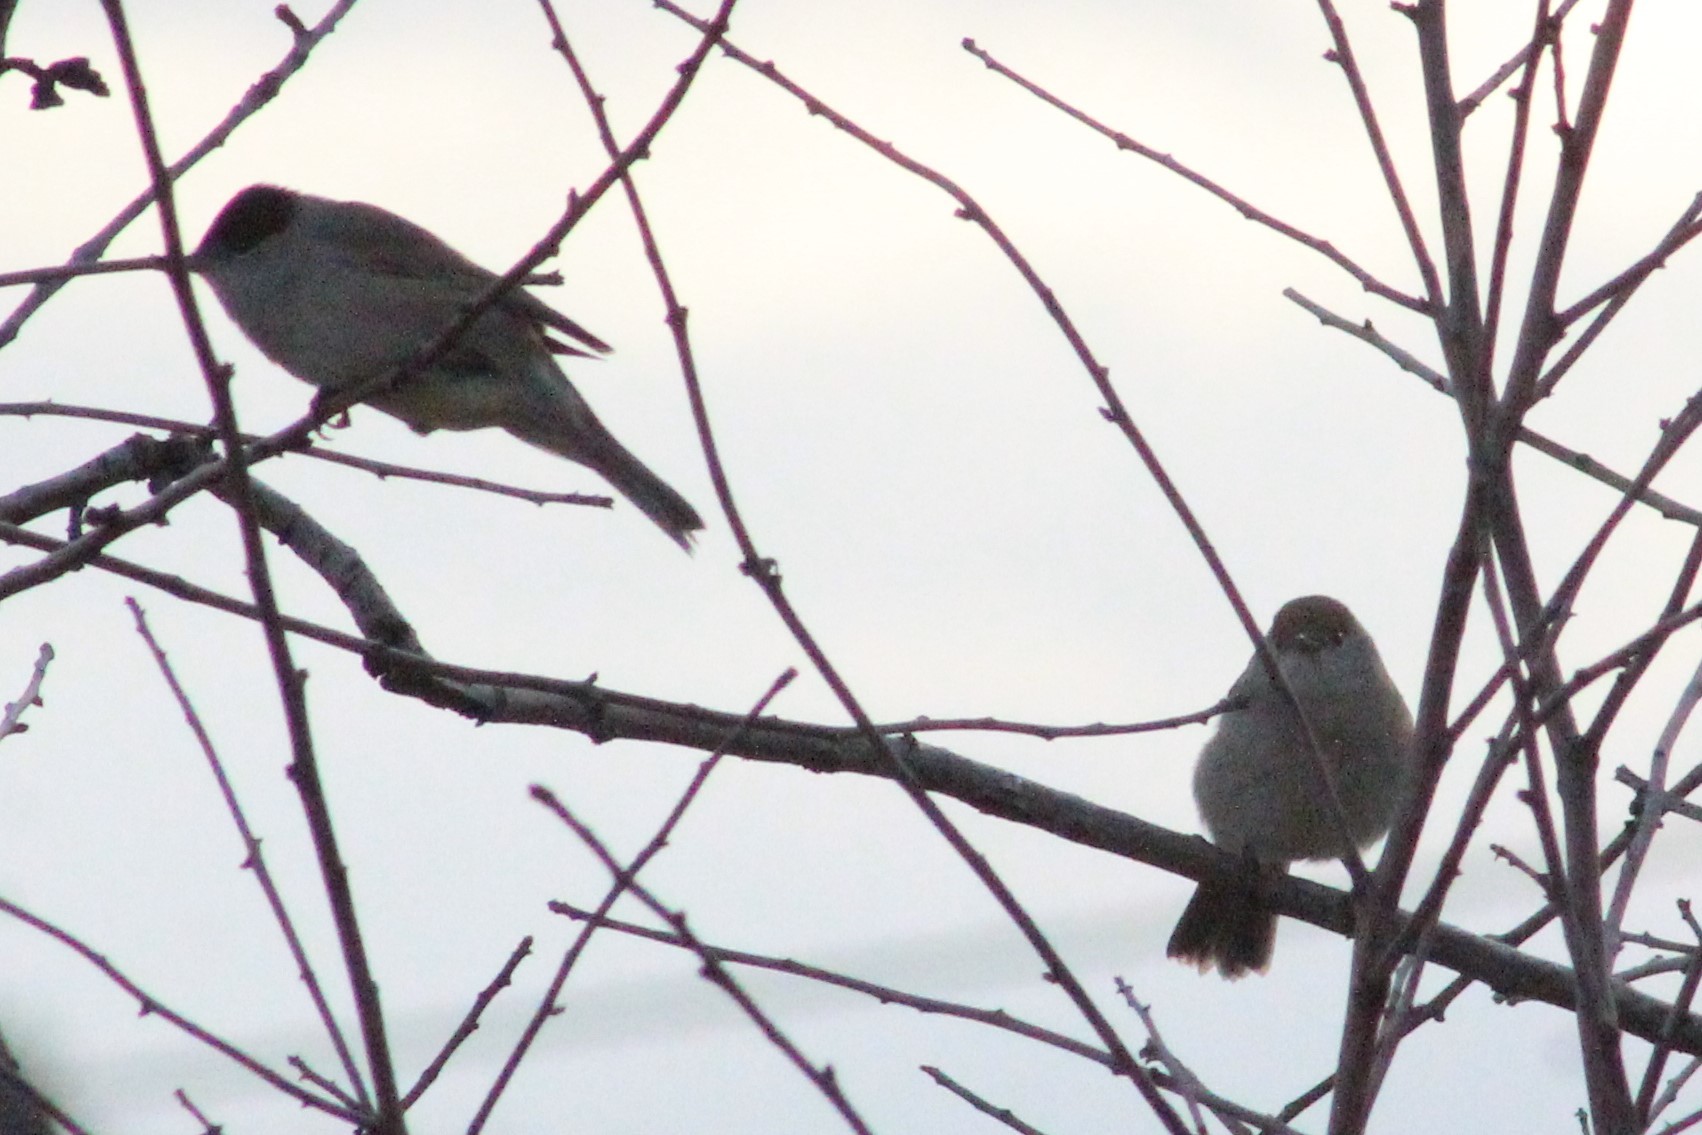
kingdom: Animalia
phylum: Chordata
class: Aves
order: Passeriformes
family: Sylviidae
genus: Sylvia
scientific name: Sylvia atricapilla
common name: Eurasian blackcap
